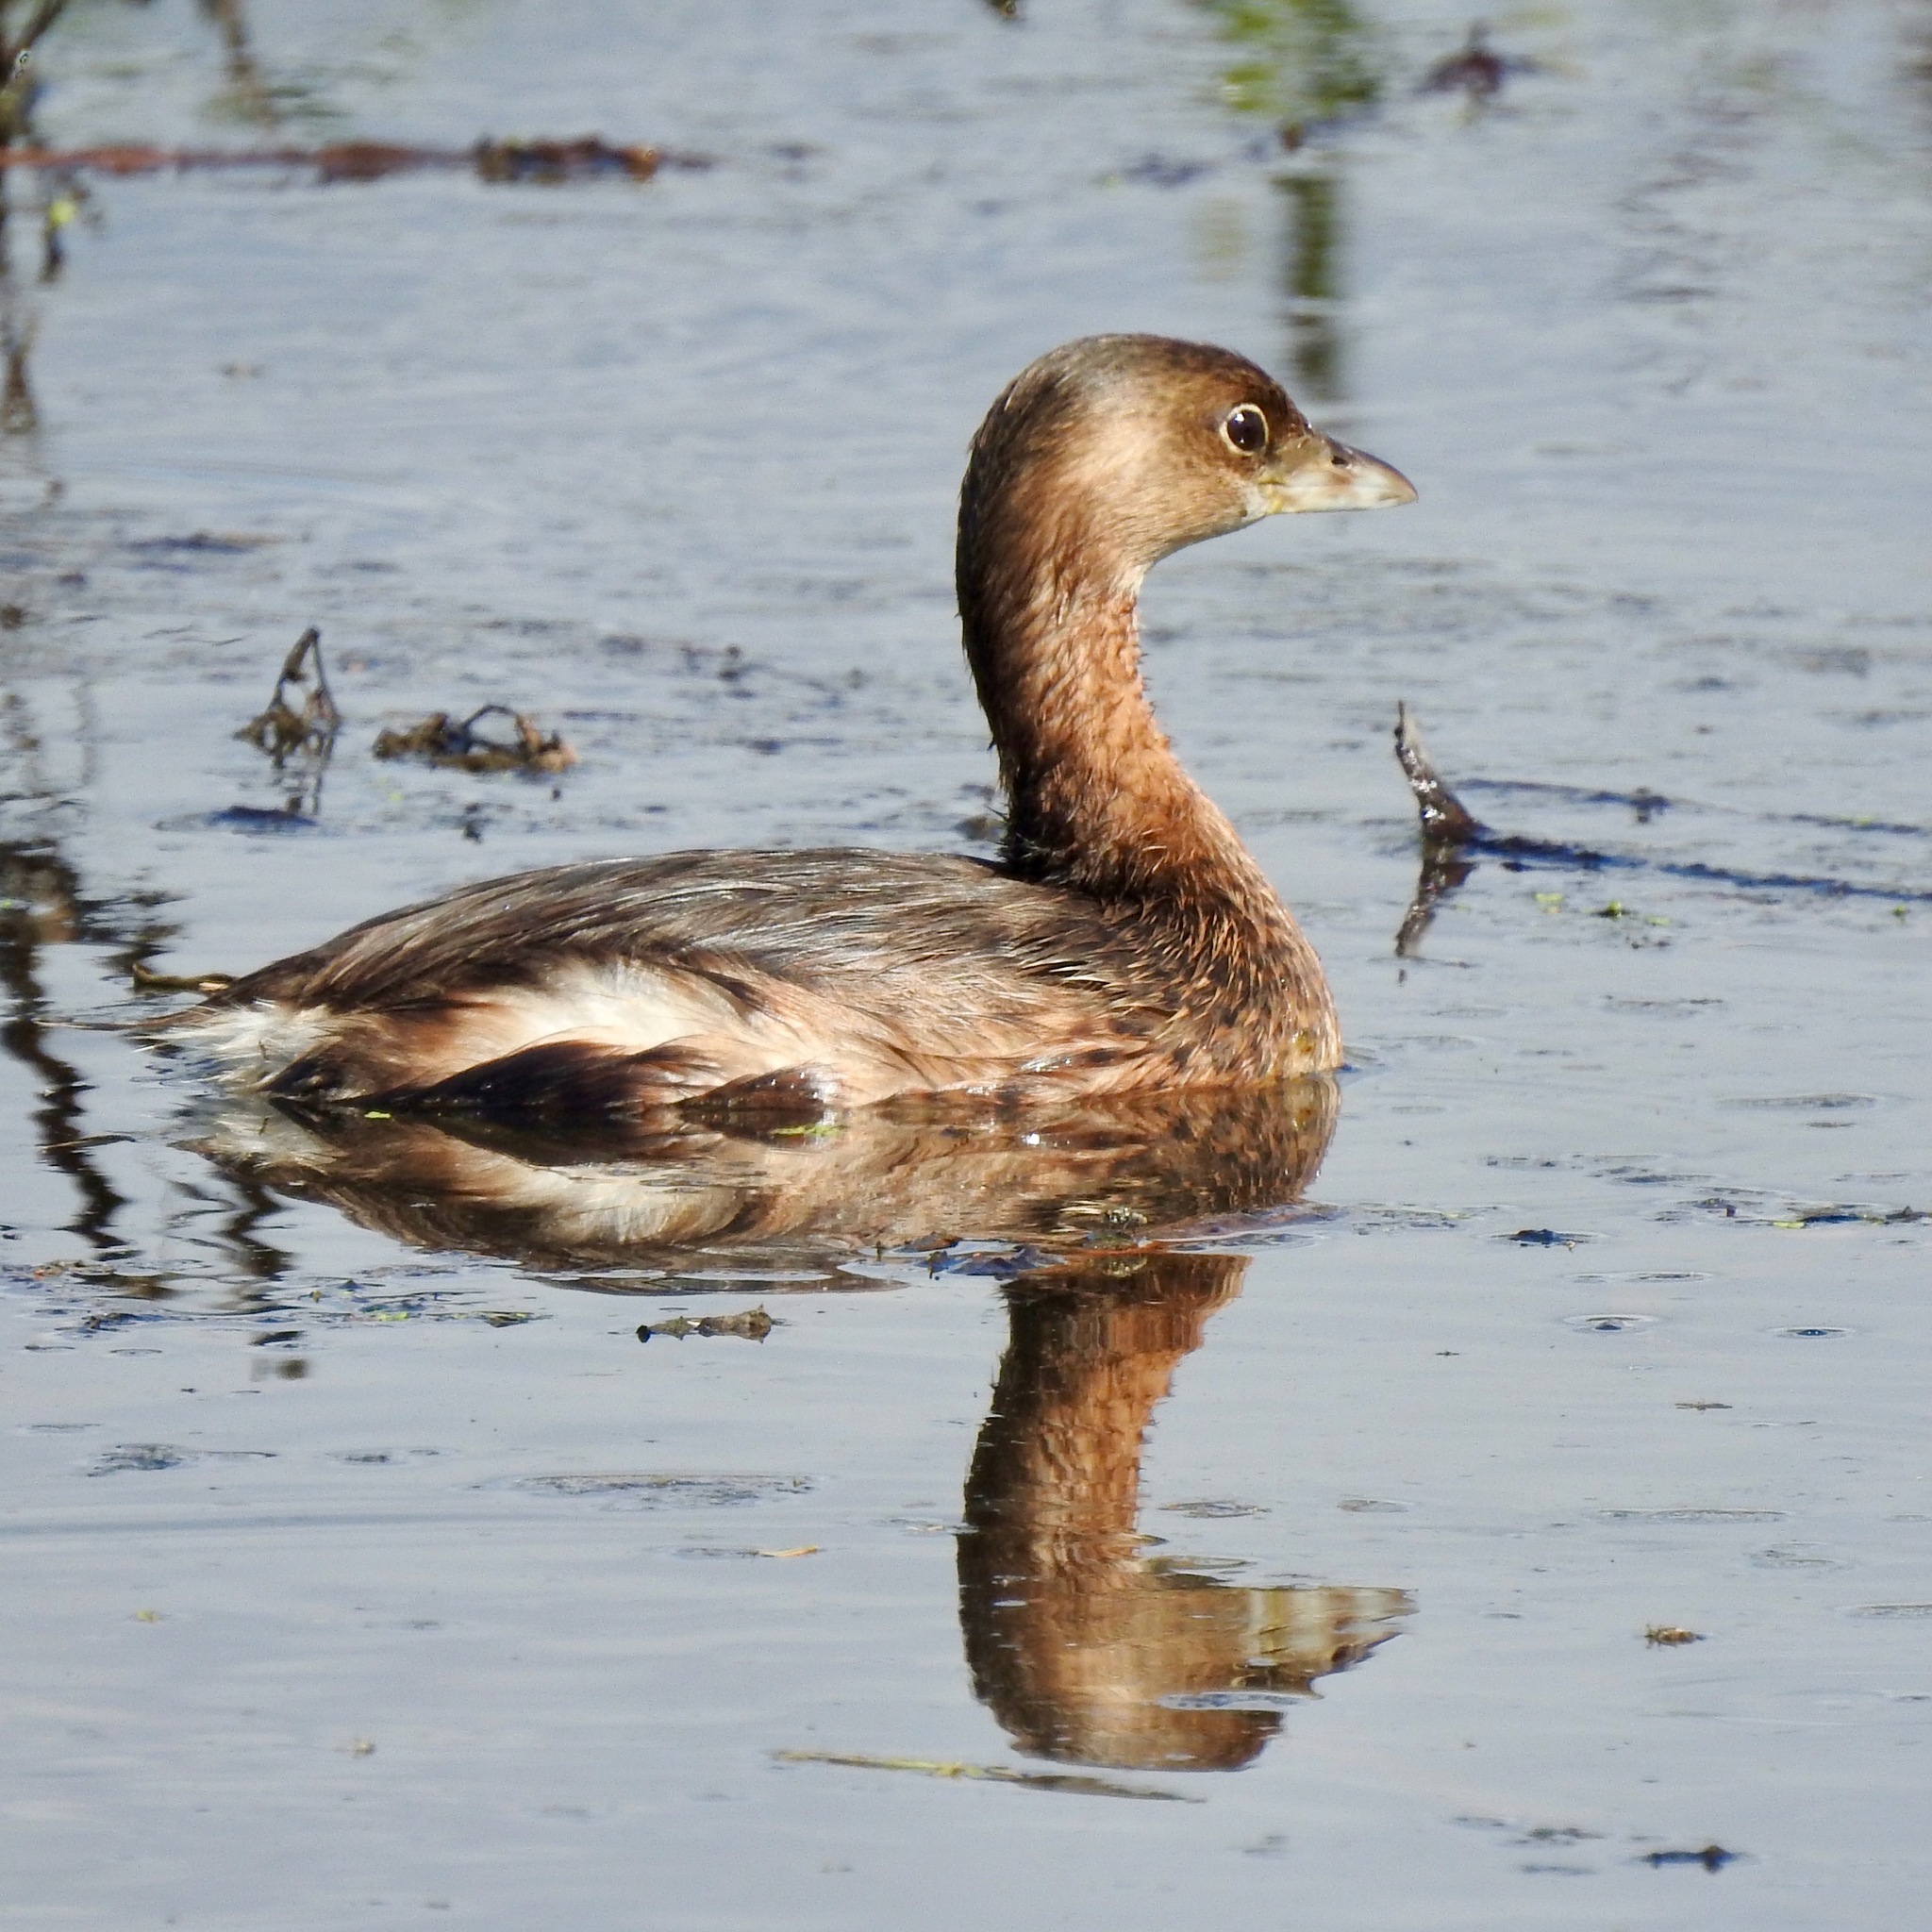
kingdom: Animalia
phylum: Chordata
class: Aves
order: Podicipediformes
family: Podicipedidae
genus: Podilymbus
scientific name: Podilymbus podiceps
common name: Pied-billed grebe
